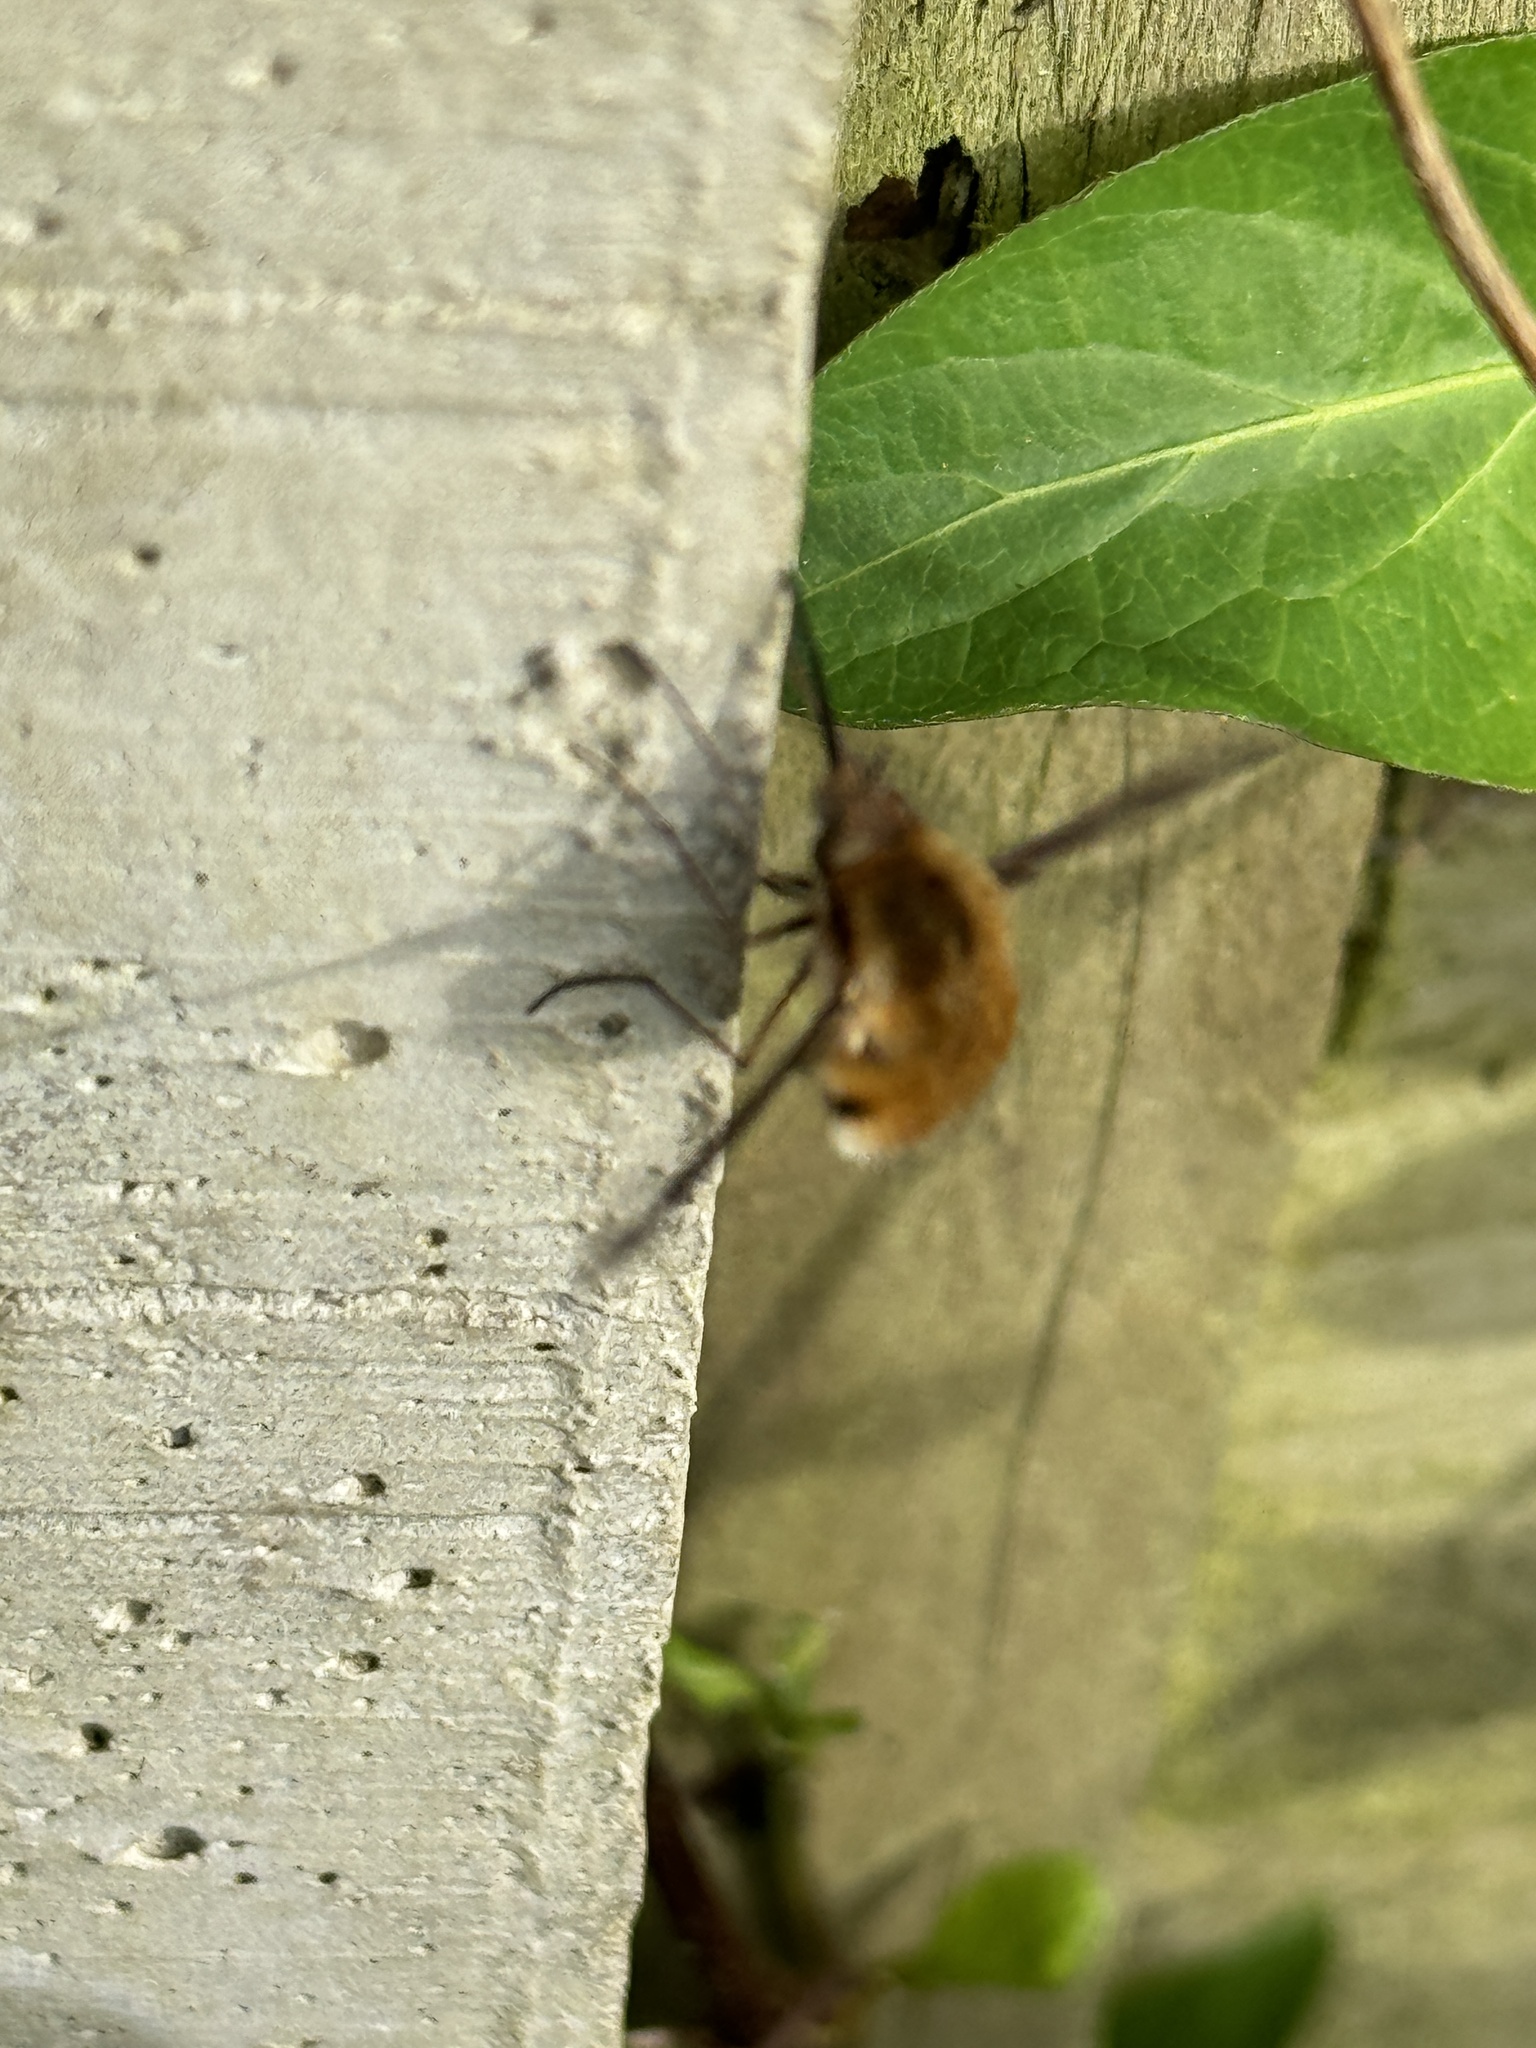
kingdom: Animalia
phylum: Arthropoda
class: Insecta
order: Diptera
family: Bombyliidae
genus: Bombylius
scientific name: Bombylius major
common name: Bee fly
